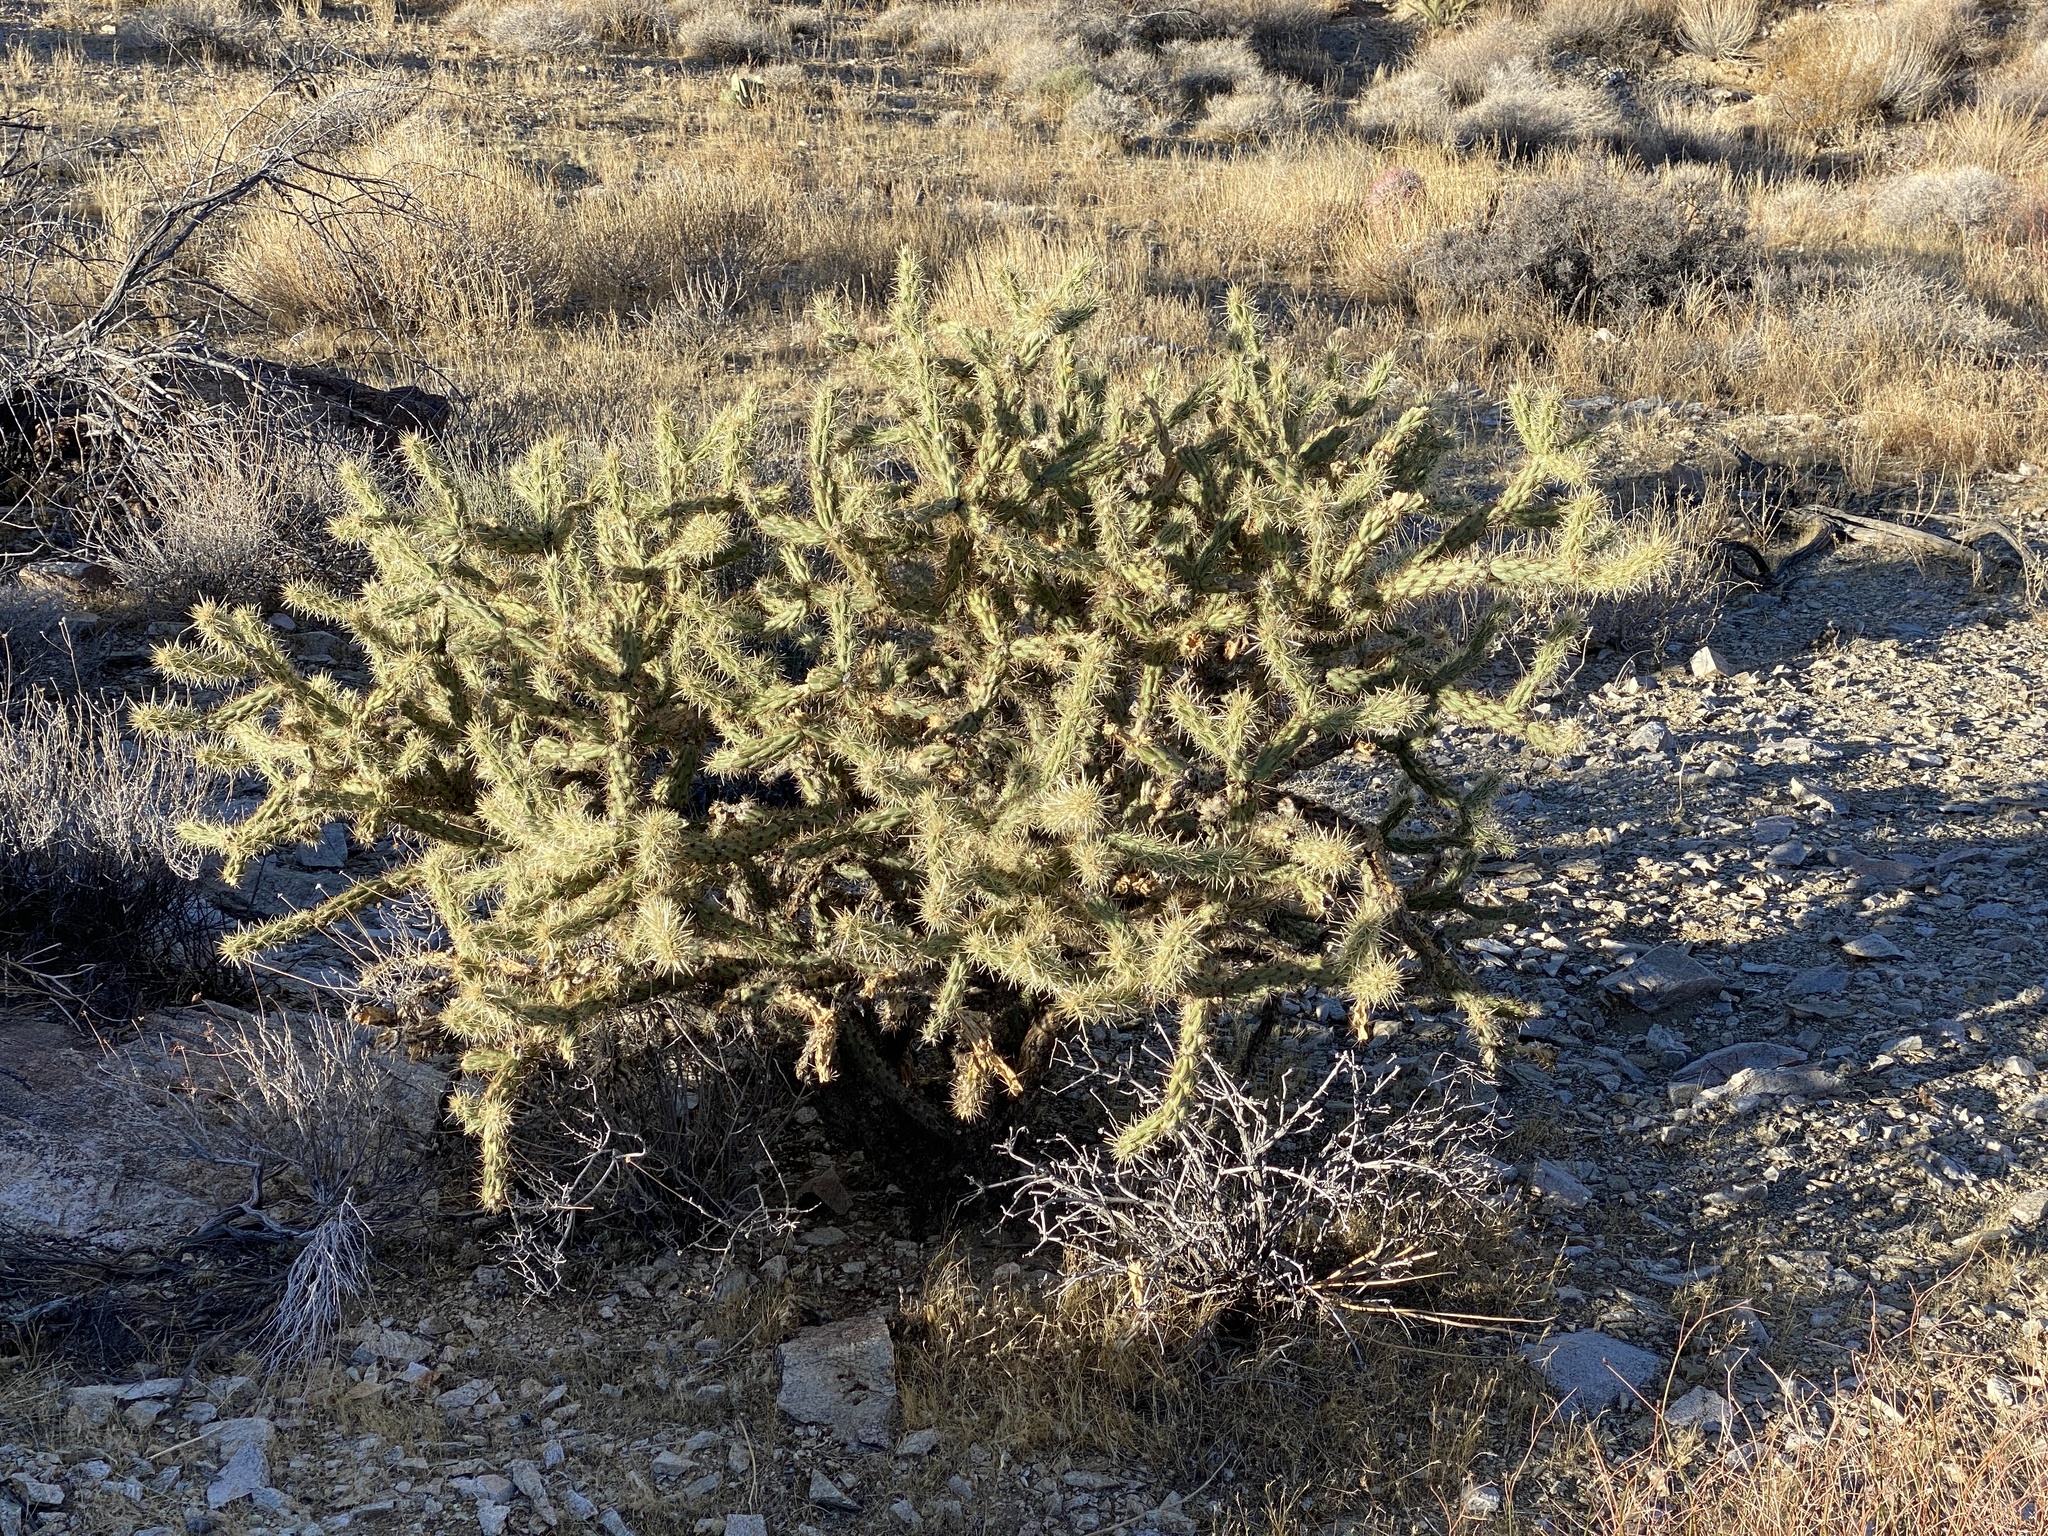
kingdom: Plantae
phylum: Tracheophyta
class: Magnoliopsida
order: Caryophyllales
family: Cactaceae
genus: Cylindropuntia
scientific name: Cylindropuntia acanthocarpa
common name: Buckhorn cholla
